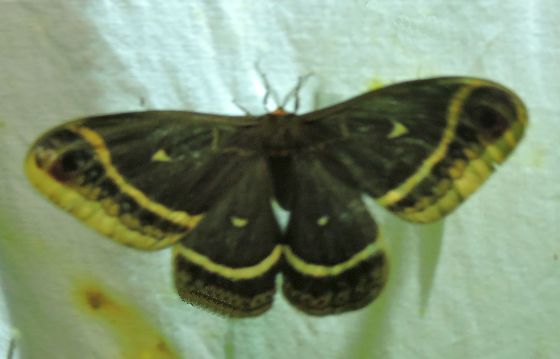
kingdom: Animalia
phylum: Arthropoda
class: Insecta
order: Lepidoptera
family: Saturniidae
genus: Eupackardia
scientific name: Eupackardia calleta
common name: Calleta silkmoth
